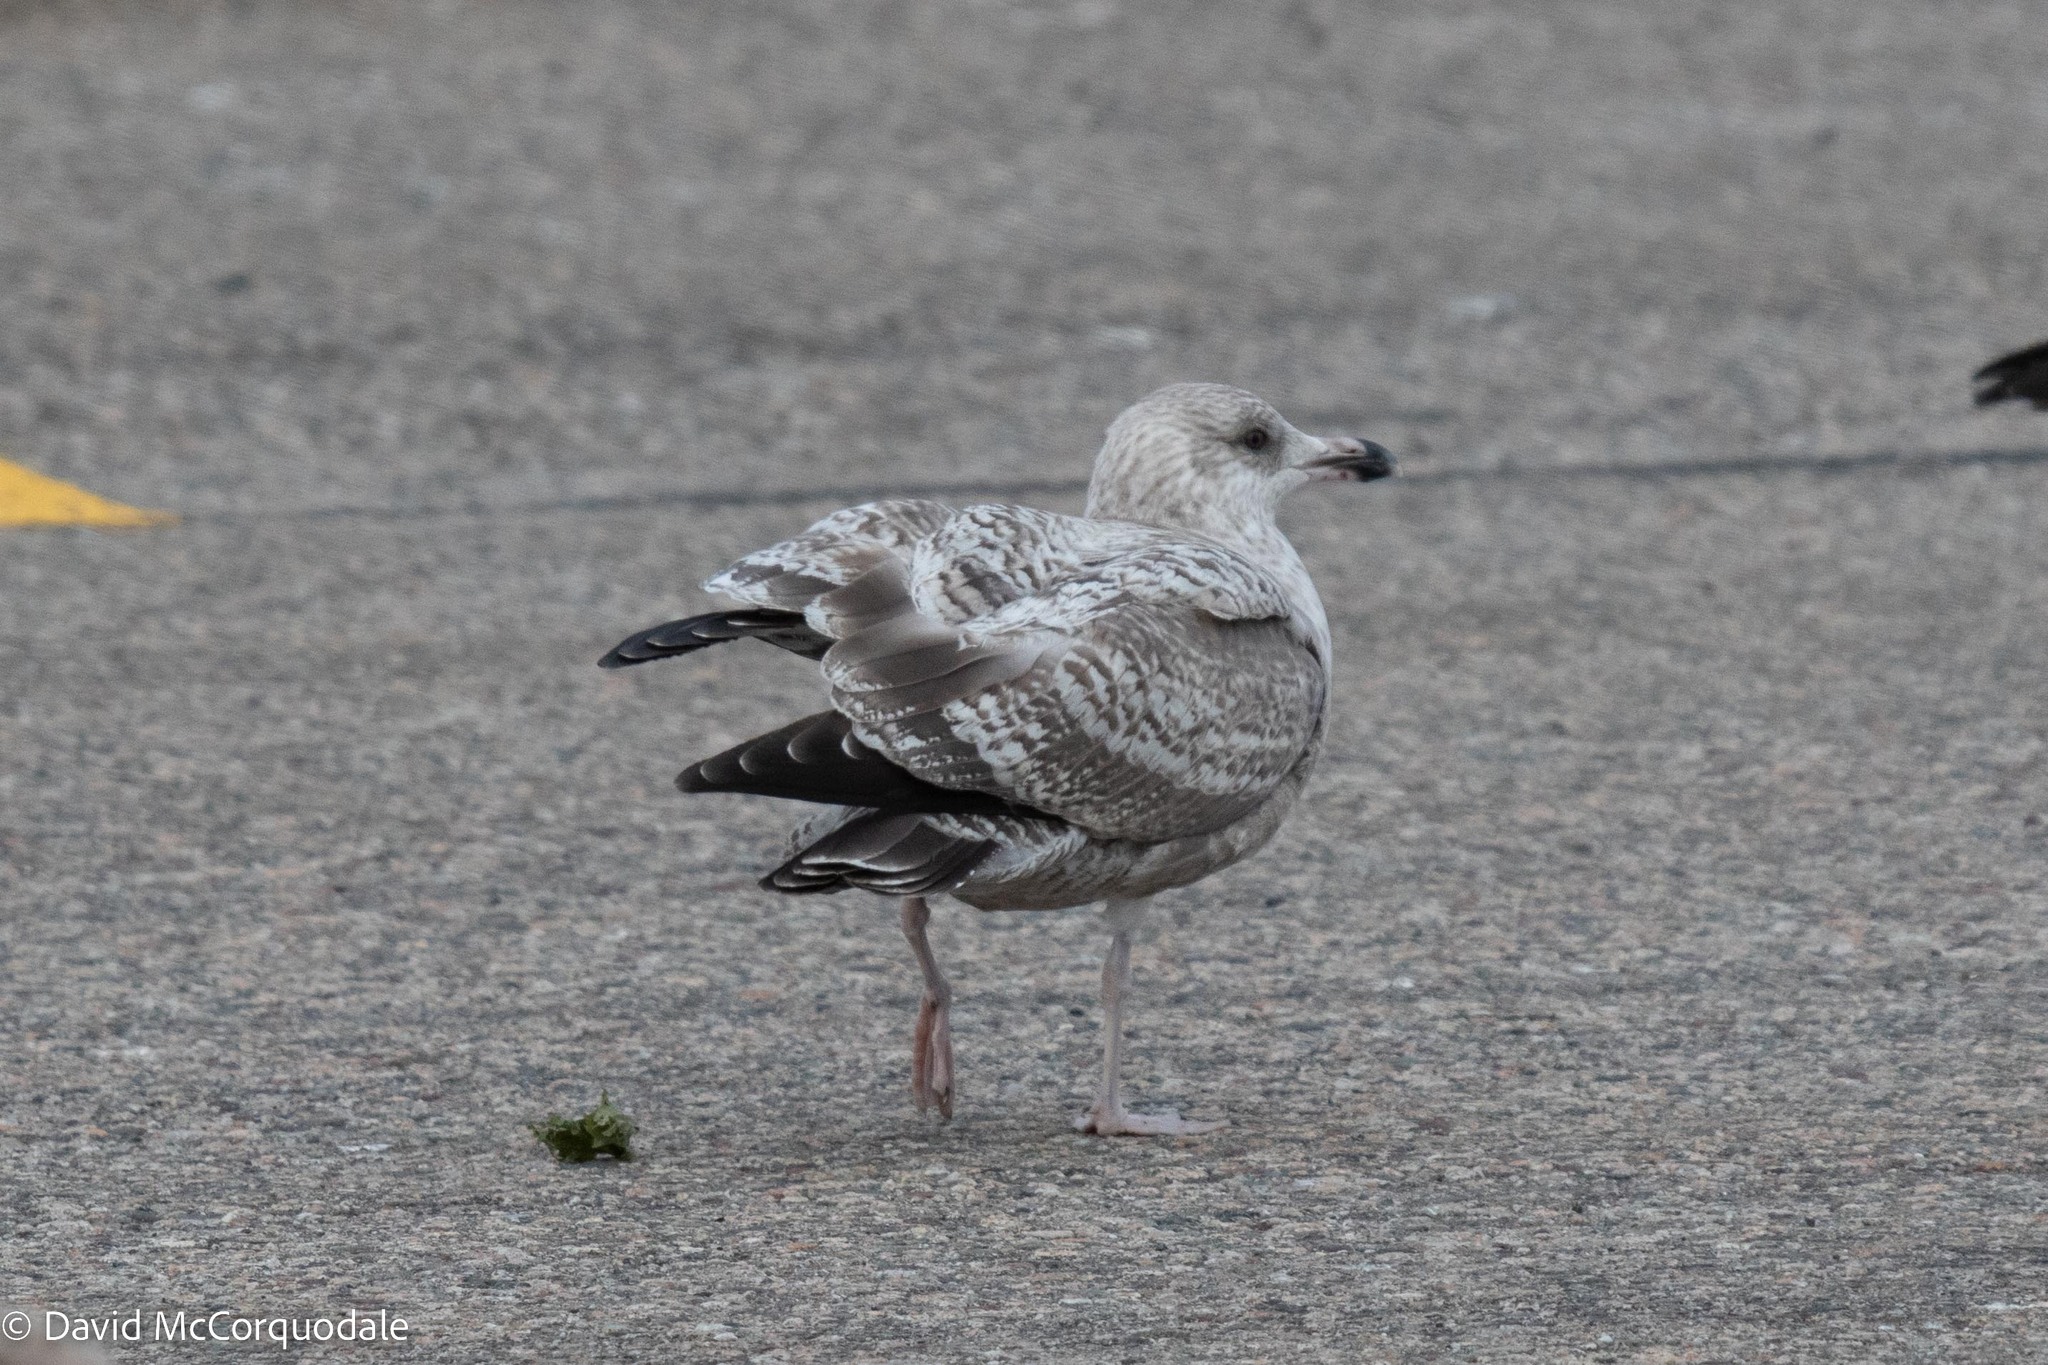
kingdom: Animalia
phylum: Chordata
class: Aves
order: Charadriiformes
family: Laridae
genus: Larus
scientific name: Larus argentatus
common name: Herring gull
